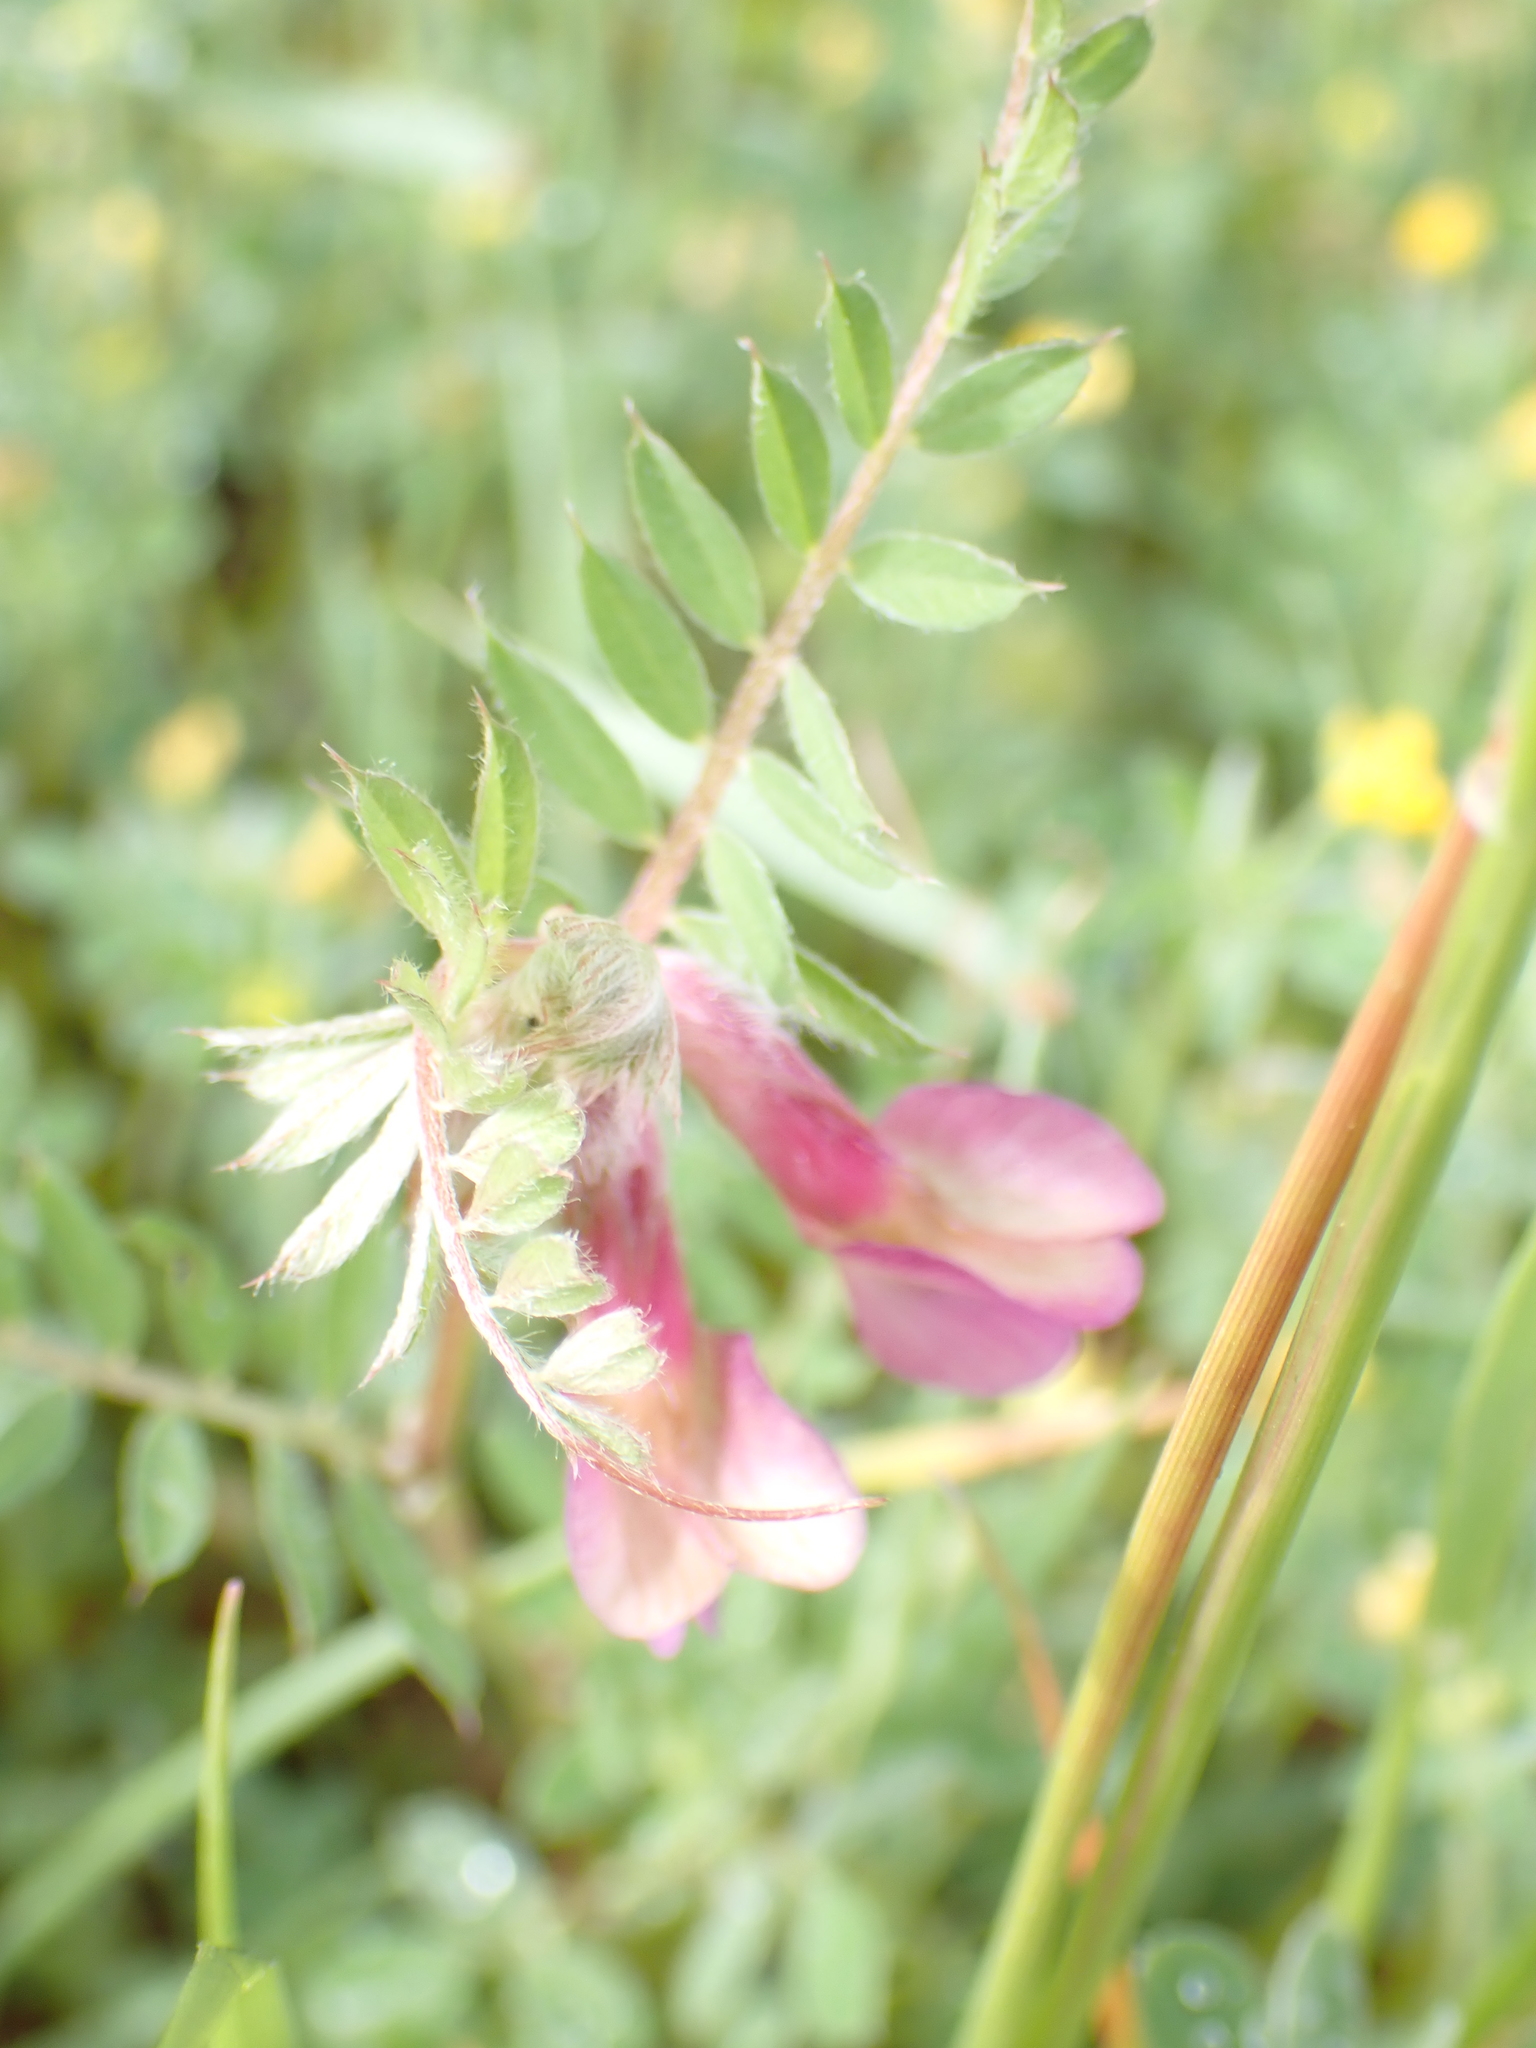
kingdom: Plantae
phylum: Tracheophyta
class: Magnoliopsida
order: Fabales
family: Fabaceae
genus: Vicia
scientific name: Vicia pannonica
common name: Hungarian vetch
